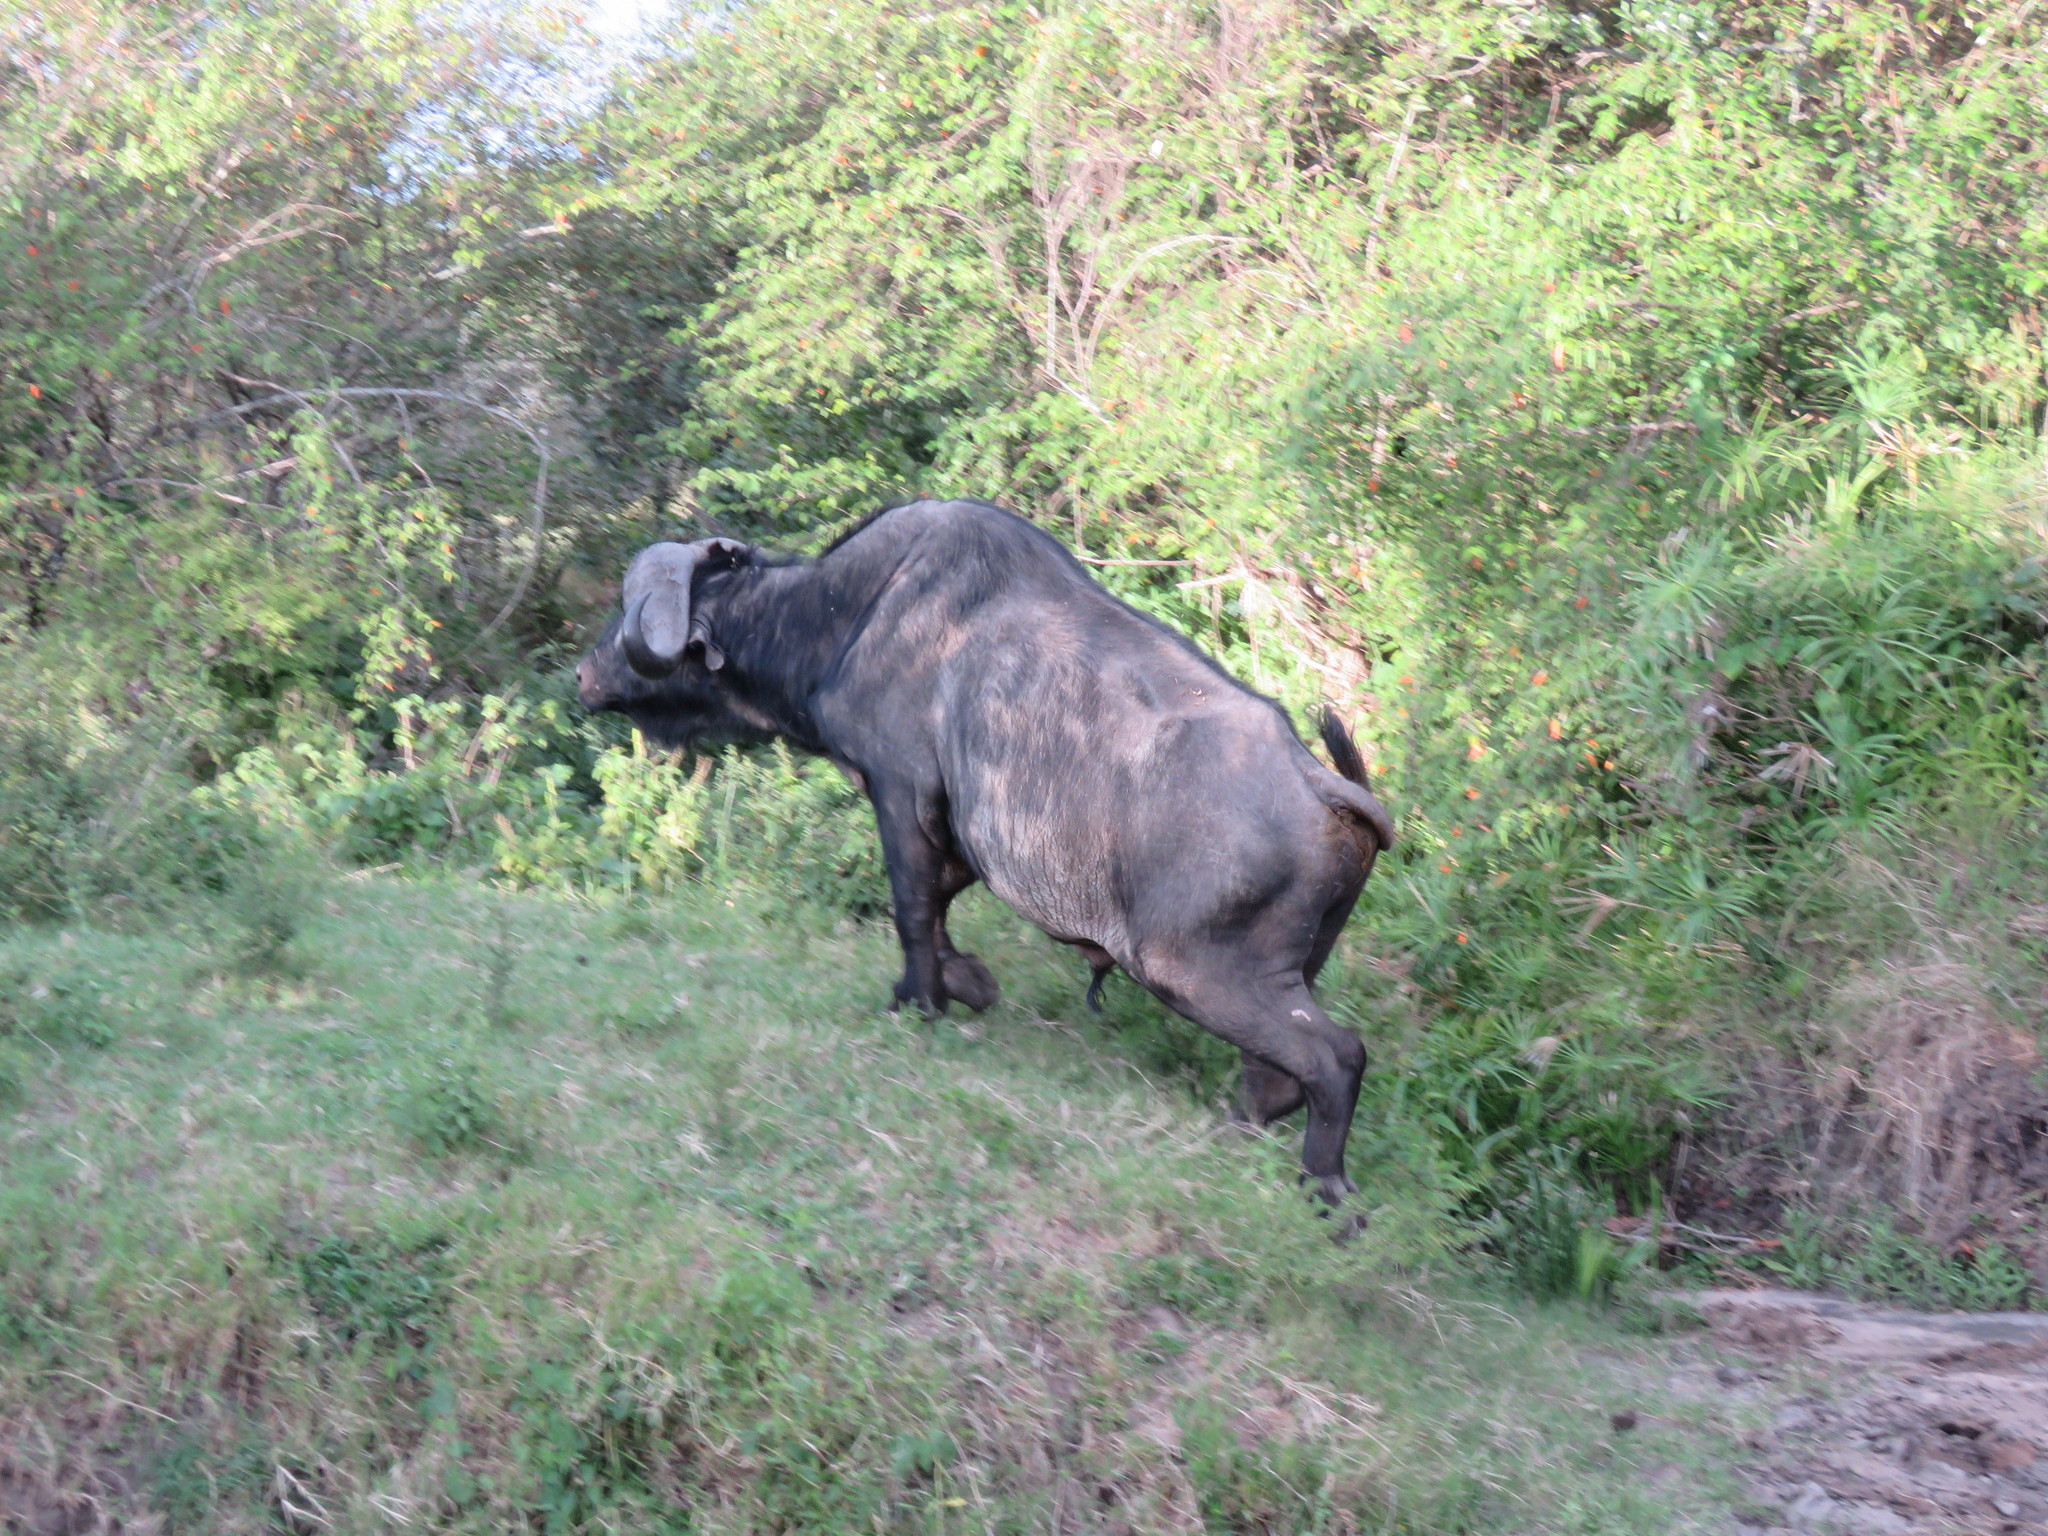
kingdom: Animalia
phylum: Chordata
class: Mammalia
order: Artiodactyla
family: Bovidae
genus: Syncerus
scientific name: Syncerus caffer
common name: African buffalo
